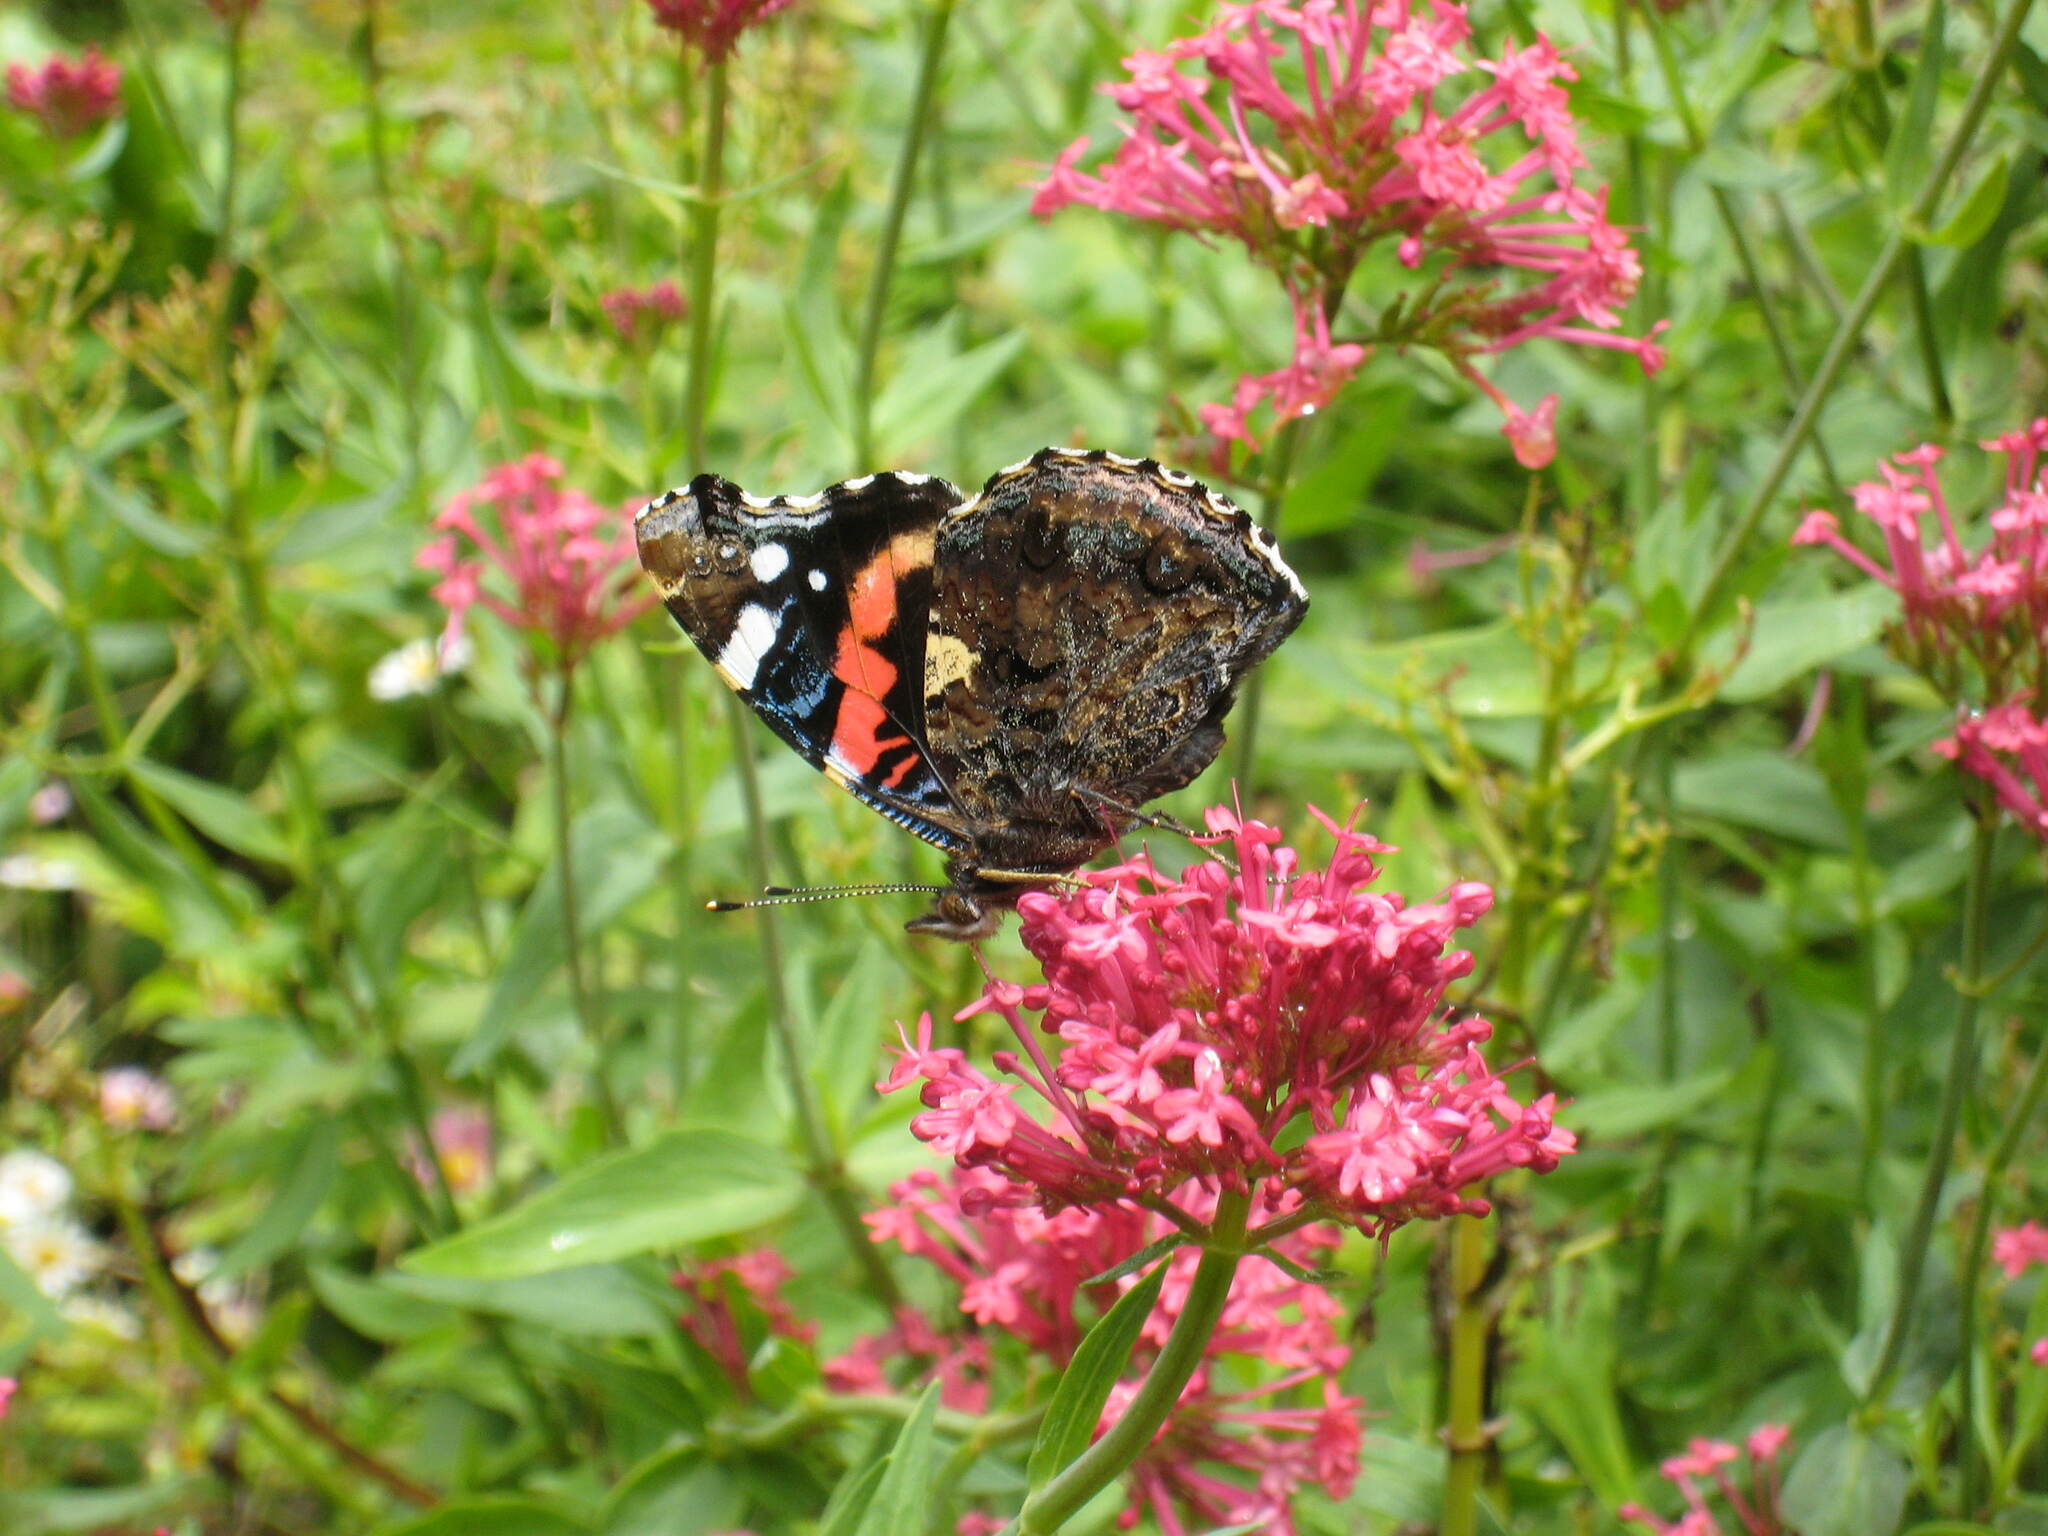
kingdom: Animalia
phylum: Arthropoda
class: Insecta
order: Lepidoptera
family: Nymphalidae
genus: Vanessa
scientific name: Vanessa atalanta
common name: Red admiral
